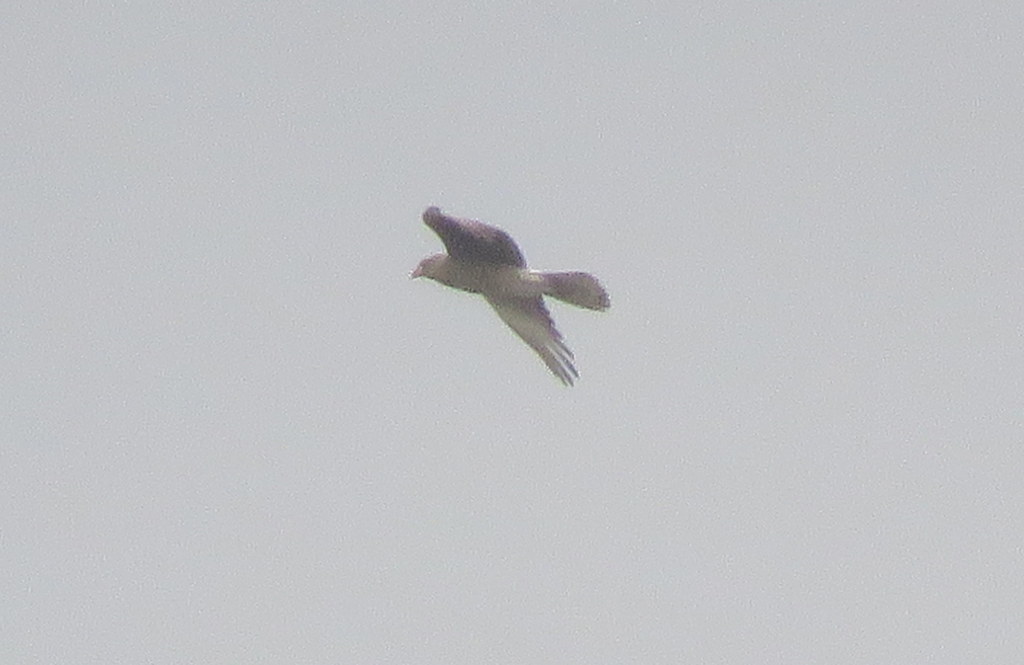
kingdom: Animalia
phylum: Chordata
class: Aves
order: Falconiformes
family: Falconidae
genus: Daptrius
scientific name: Daptrius
